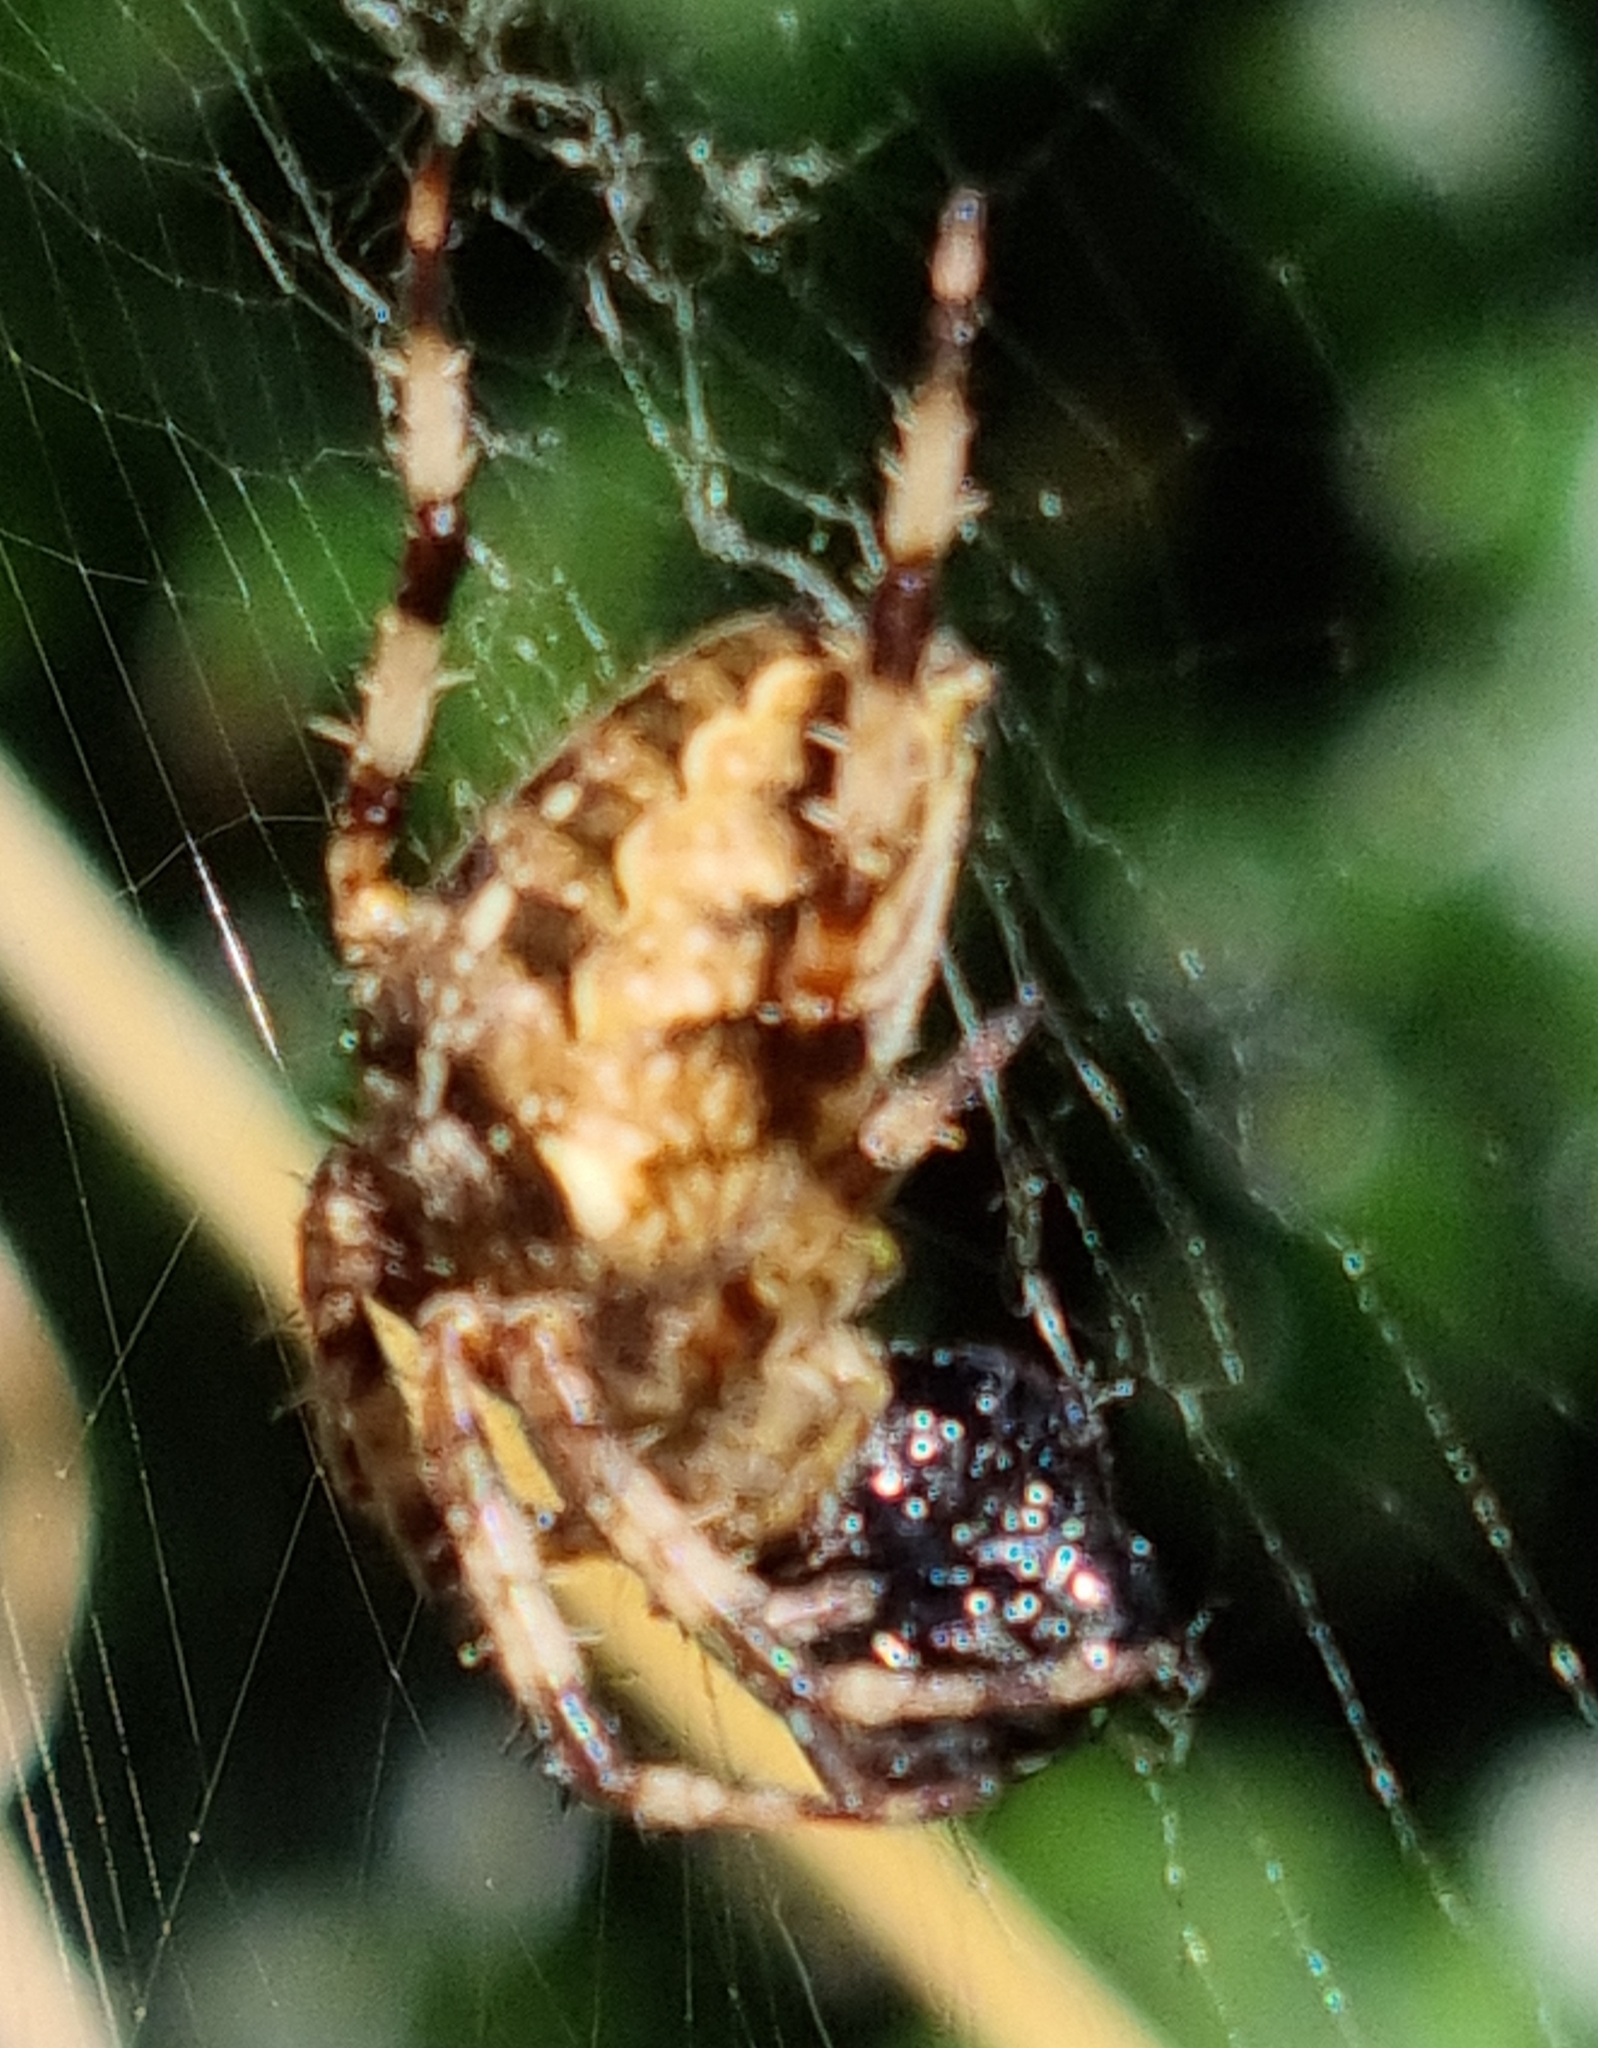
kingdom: Animalia
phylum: Arthropoda
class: Arachnida
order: Araneae
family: Araneidae
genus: Araneus
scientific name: Araneus diadematus
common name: Cross orbweaver
